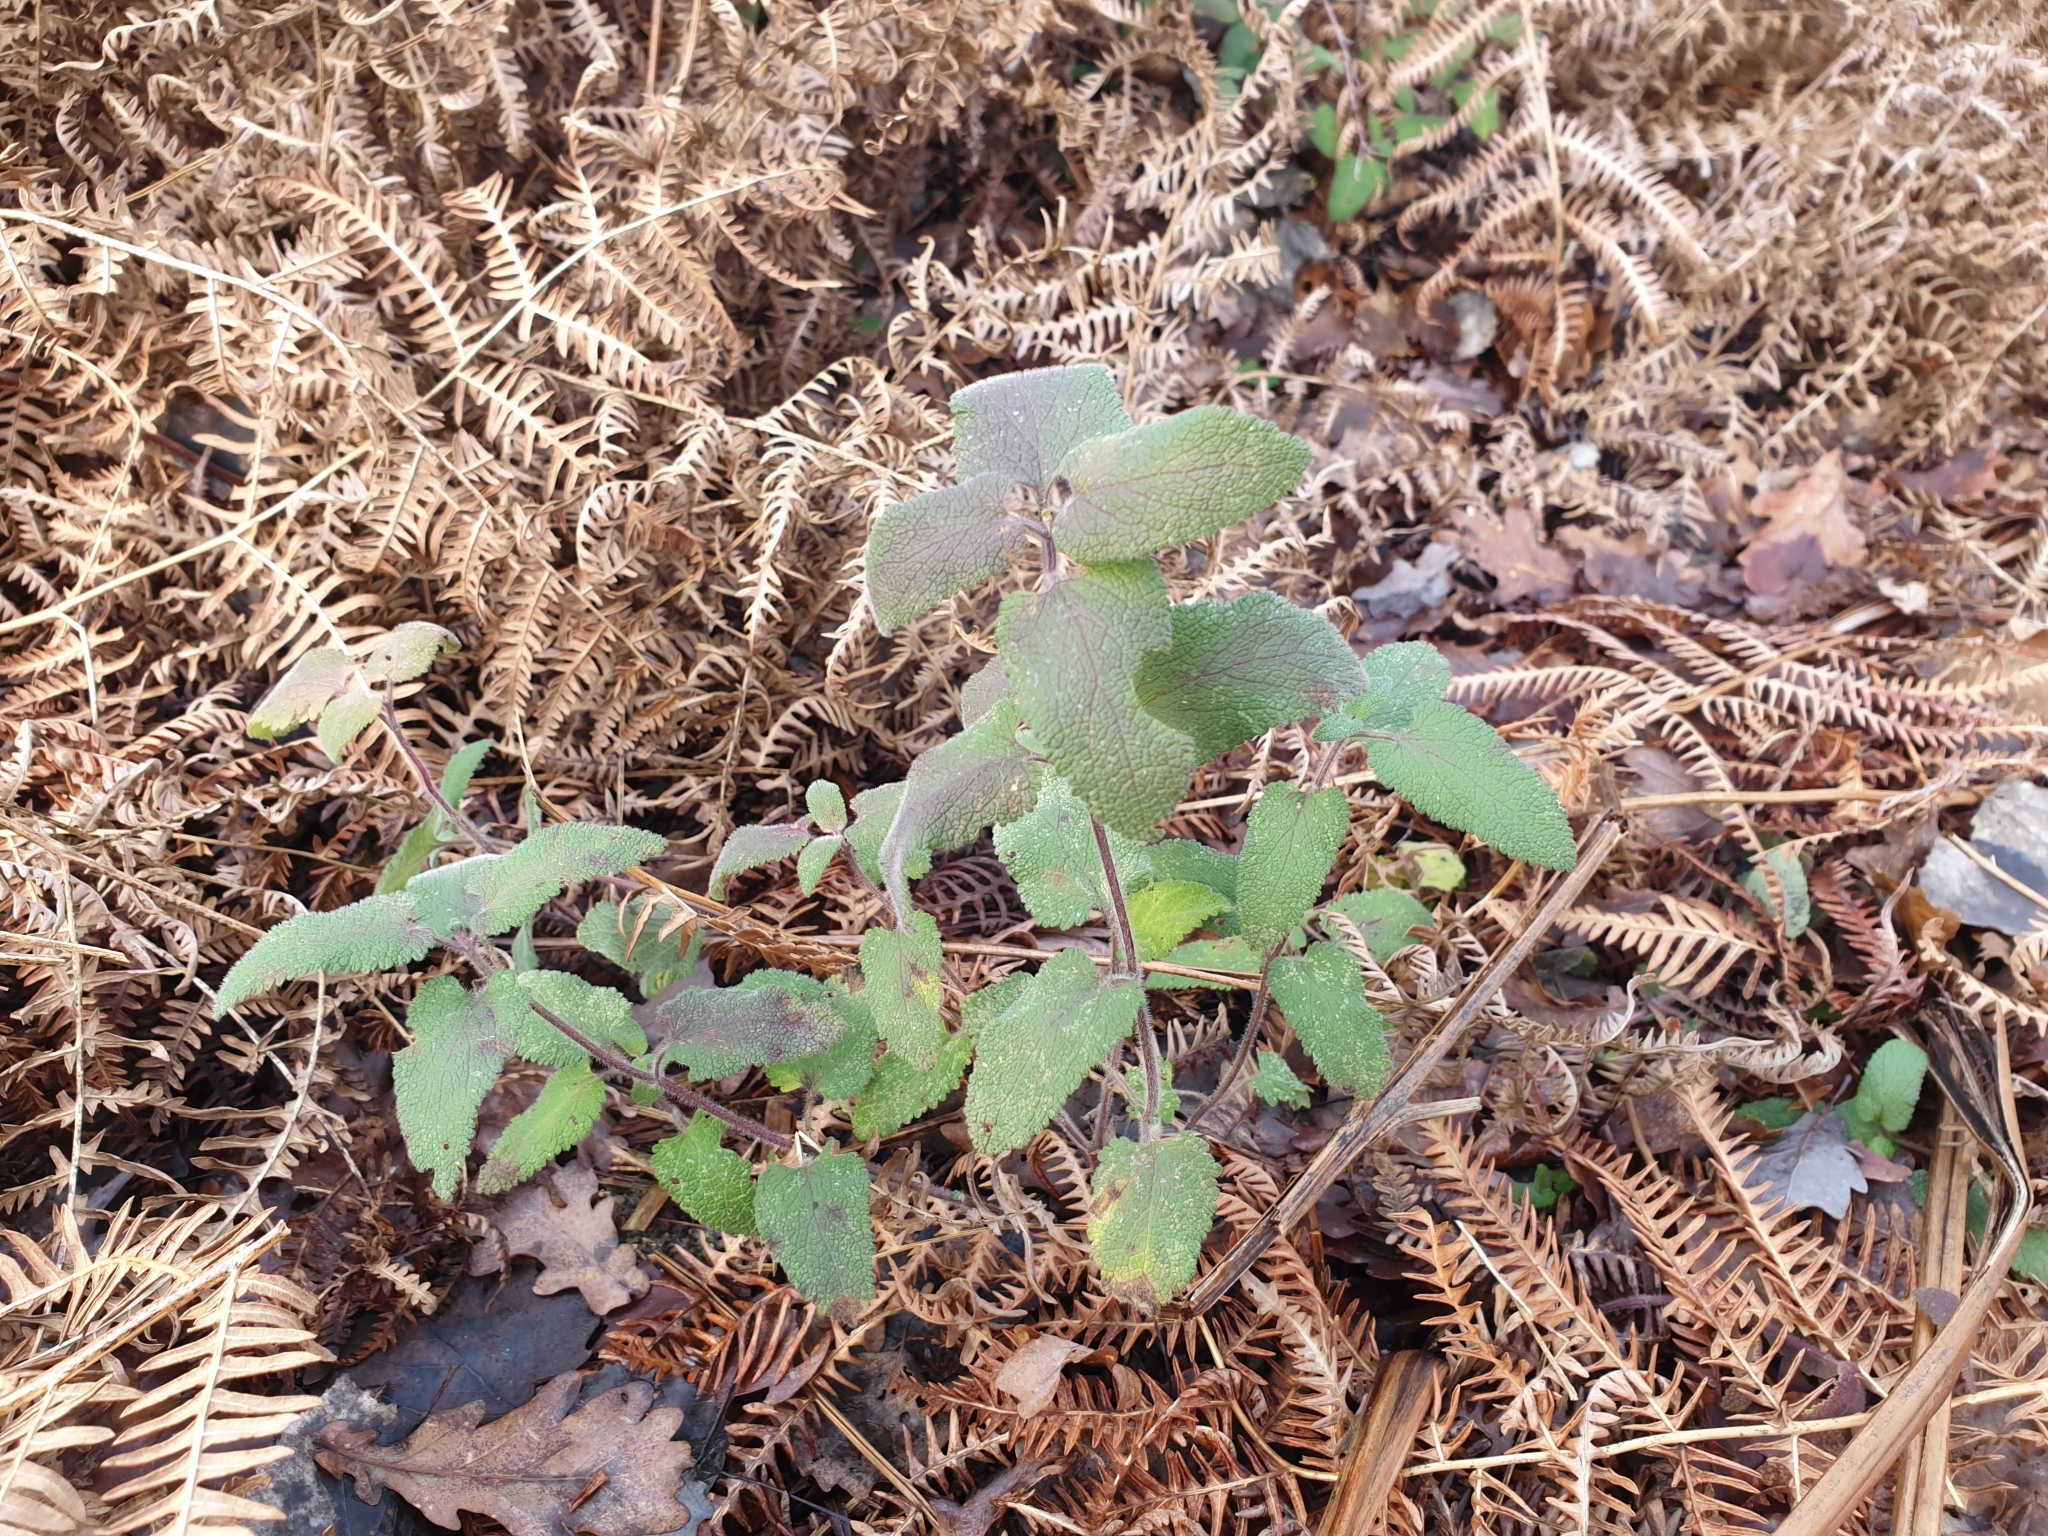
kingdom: Plantae
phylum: Tracheophyta
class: Magnoliopsida
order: Lamiales
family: Lamiaceae
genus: Teucrium
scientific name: Teucrium scorodonia
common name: Woodland germander
